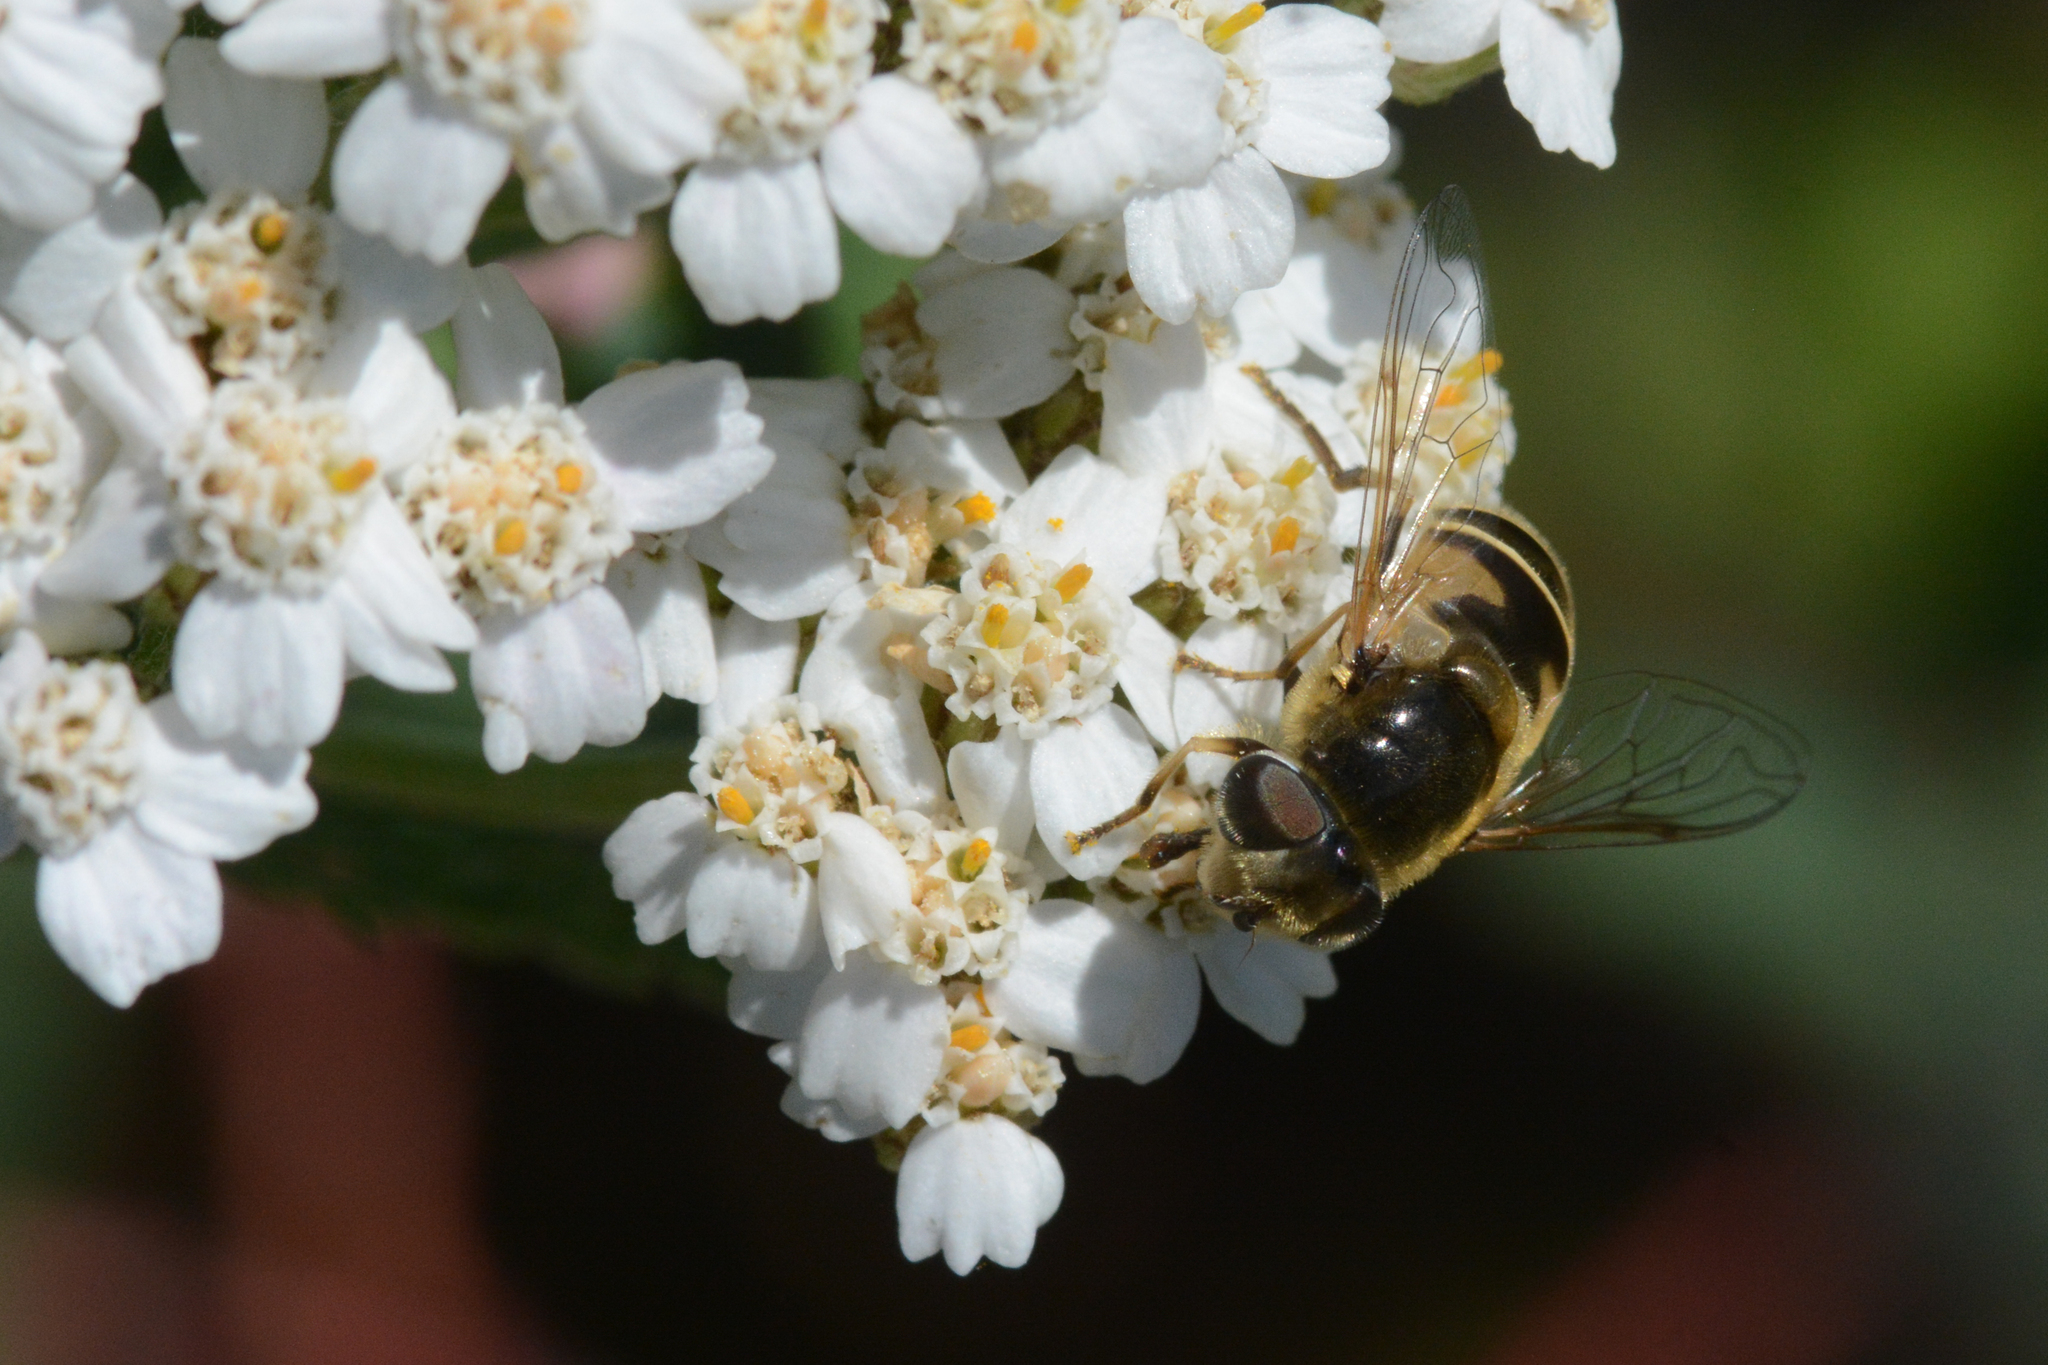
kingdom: Animalia
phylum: Arthropoda
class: Insecta
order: Diptera
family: Syrphidae
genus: Eristalis
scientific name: Eristalis hirta
